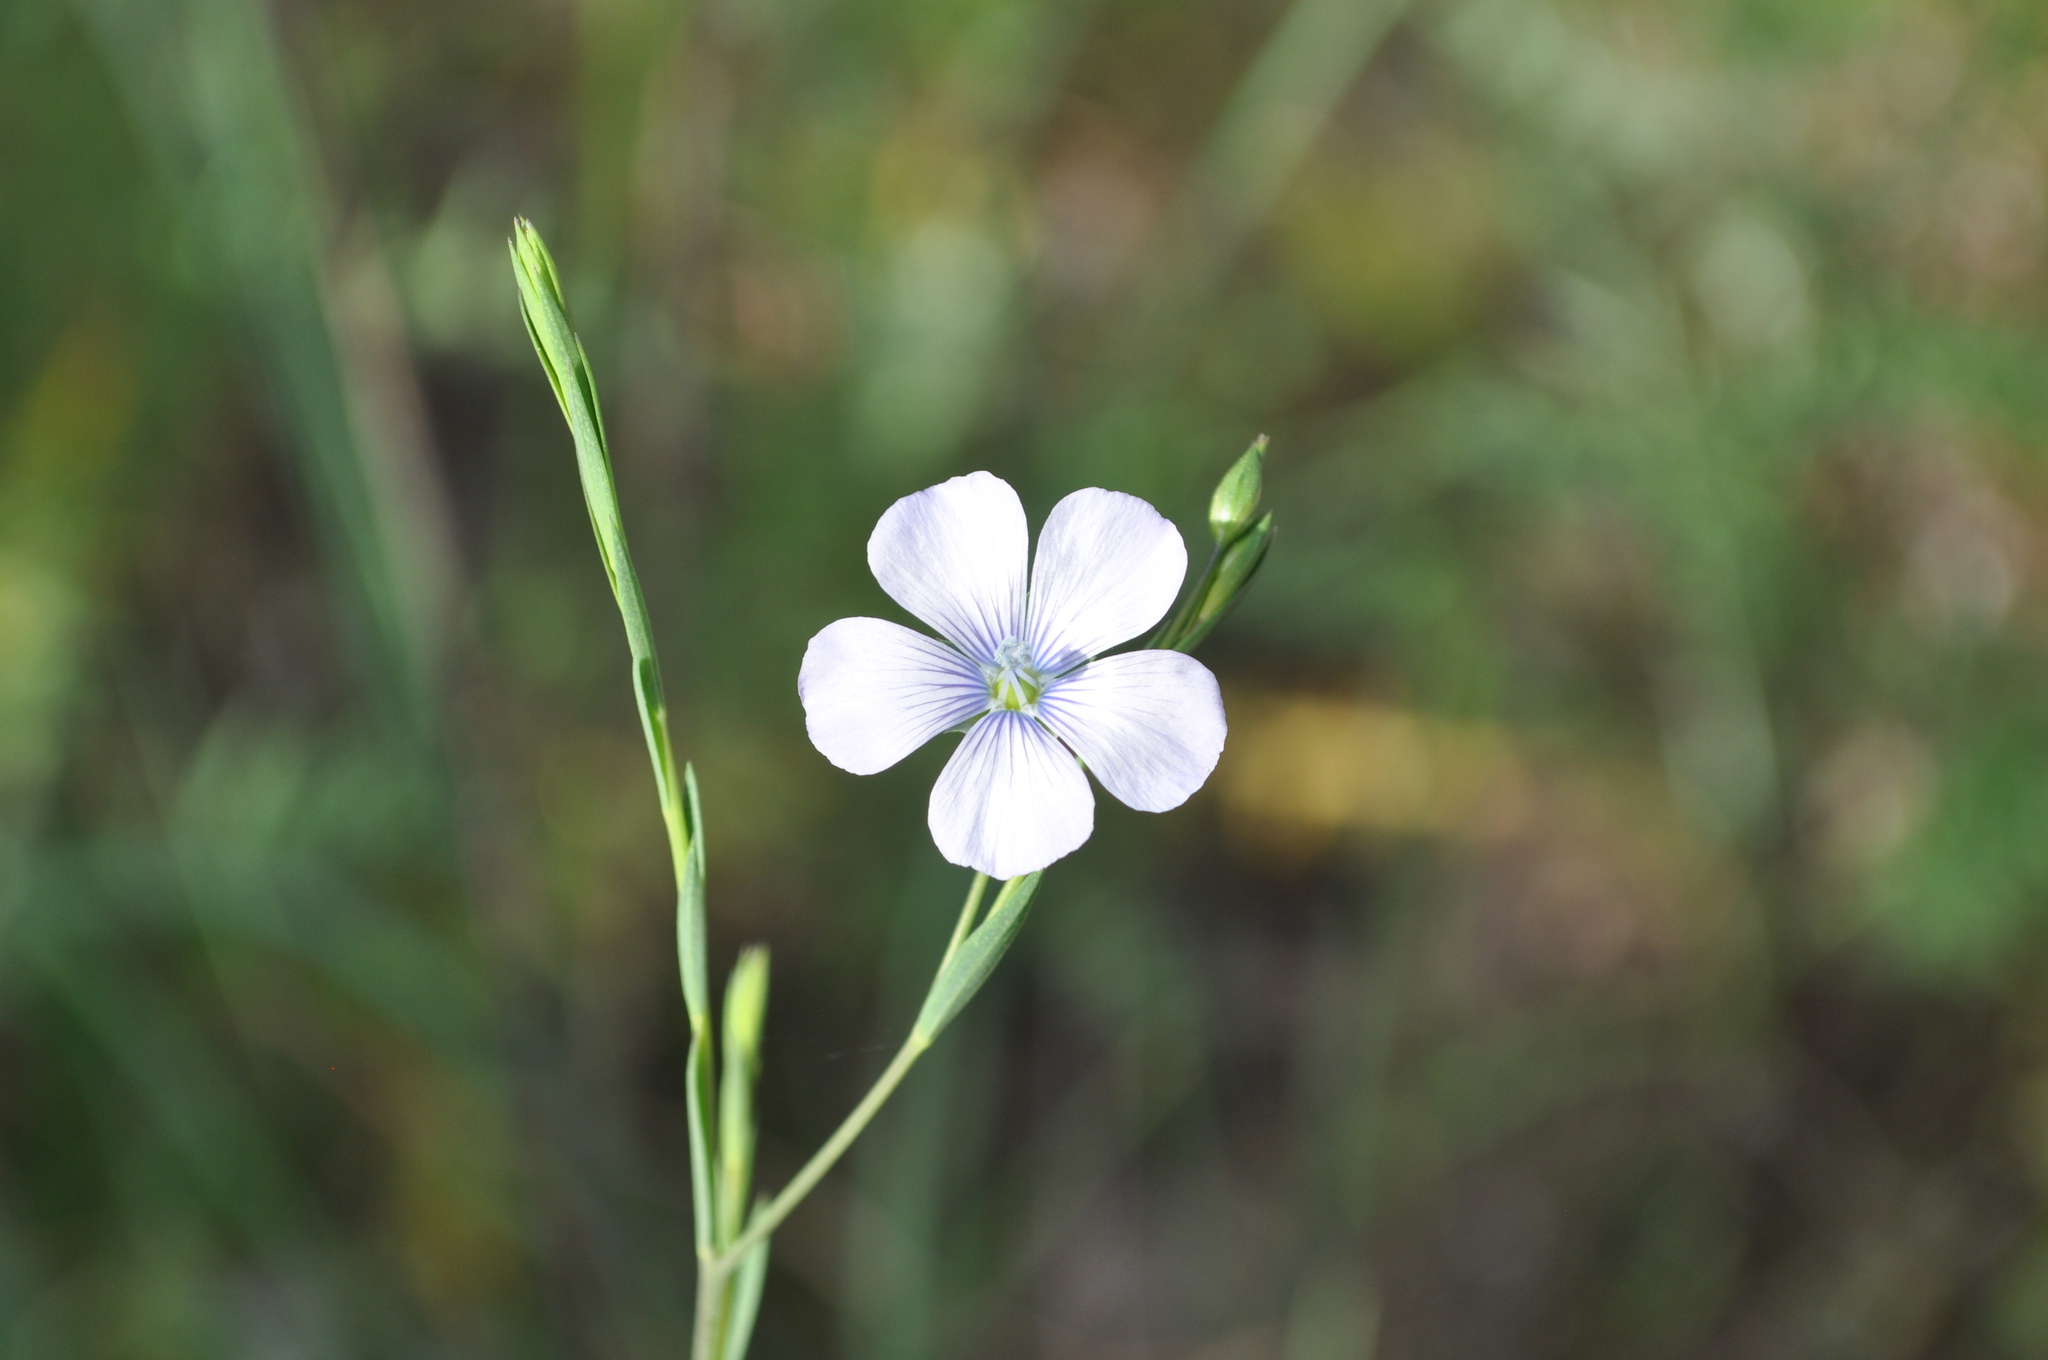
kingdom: Plantae
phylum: Tracheophyta
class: Magnoliopsida
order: Malpighiales
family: Linaceae
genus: Linum
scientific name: Linum bienne
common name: Pale flax
